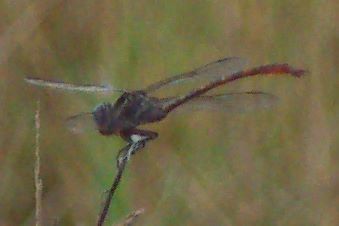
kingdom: Animalia
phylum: Arthropoda
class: Insecta
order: Odonata
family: Gomphidae
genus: Aphylla
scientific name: Aphylla williamsoni
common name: Two-striped forceptail
